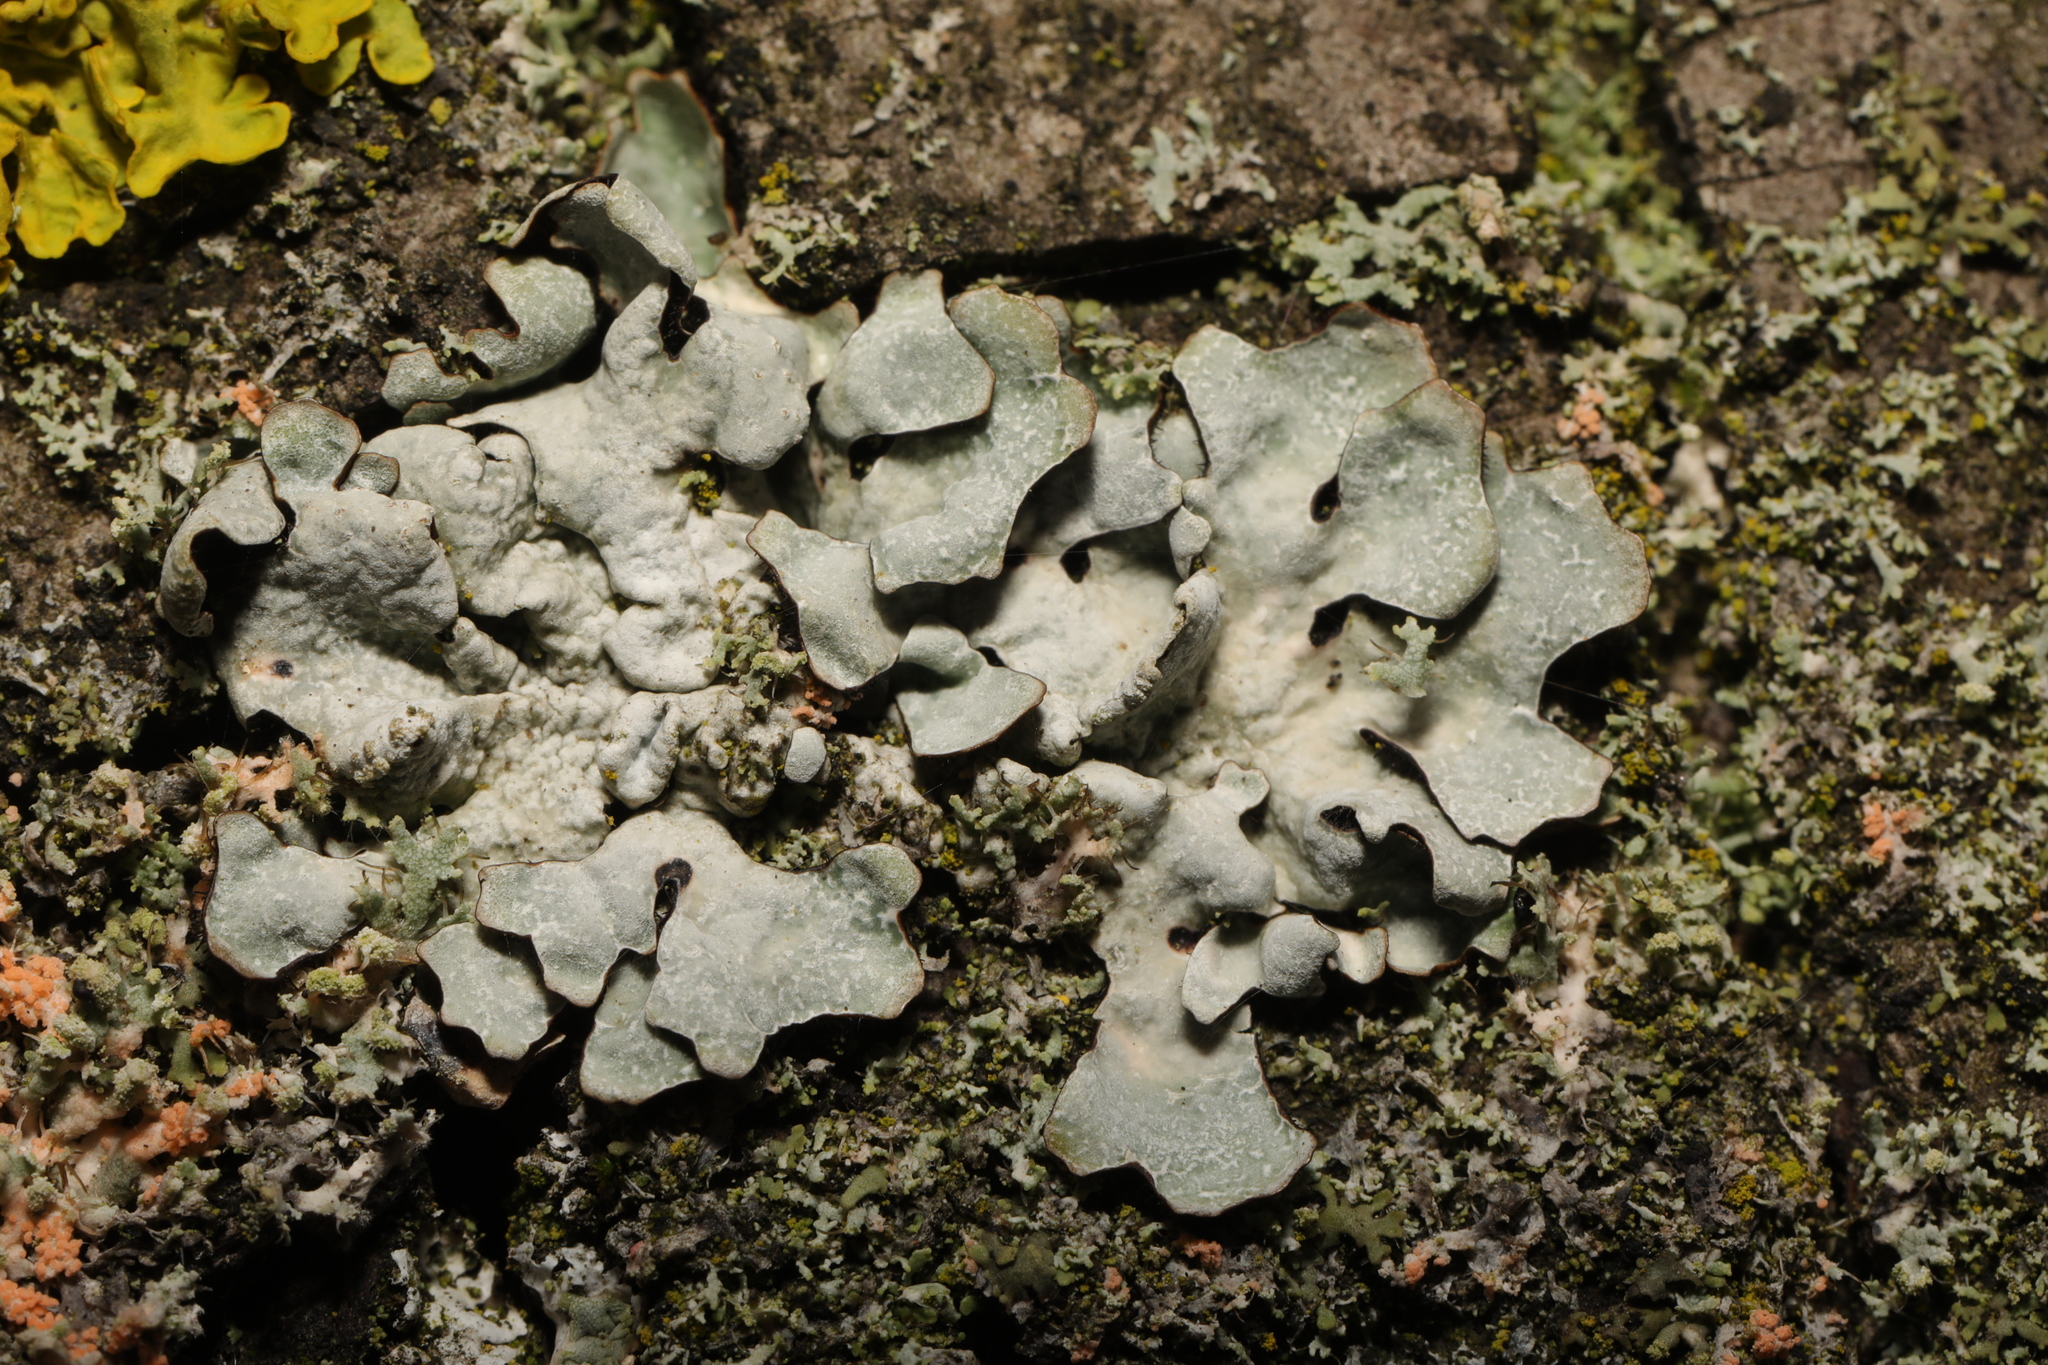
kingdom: Fungi
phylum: Ascomycota
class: Lecanoromycetes
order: Lecanorales
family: Parmeliaceae
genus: Parmelia
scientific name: Parmelia sulcata
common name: Netted shield lichen
